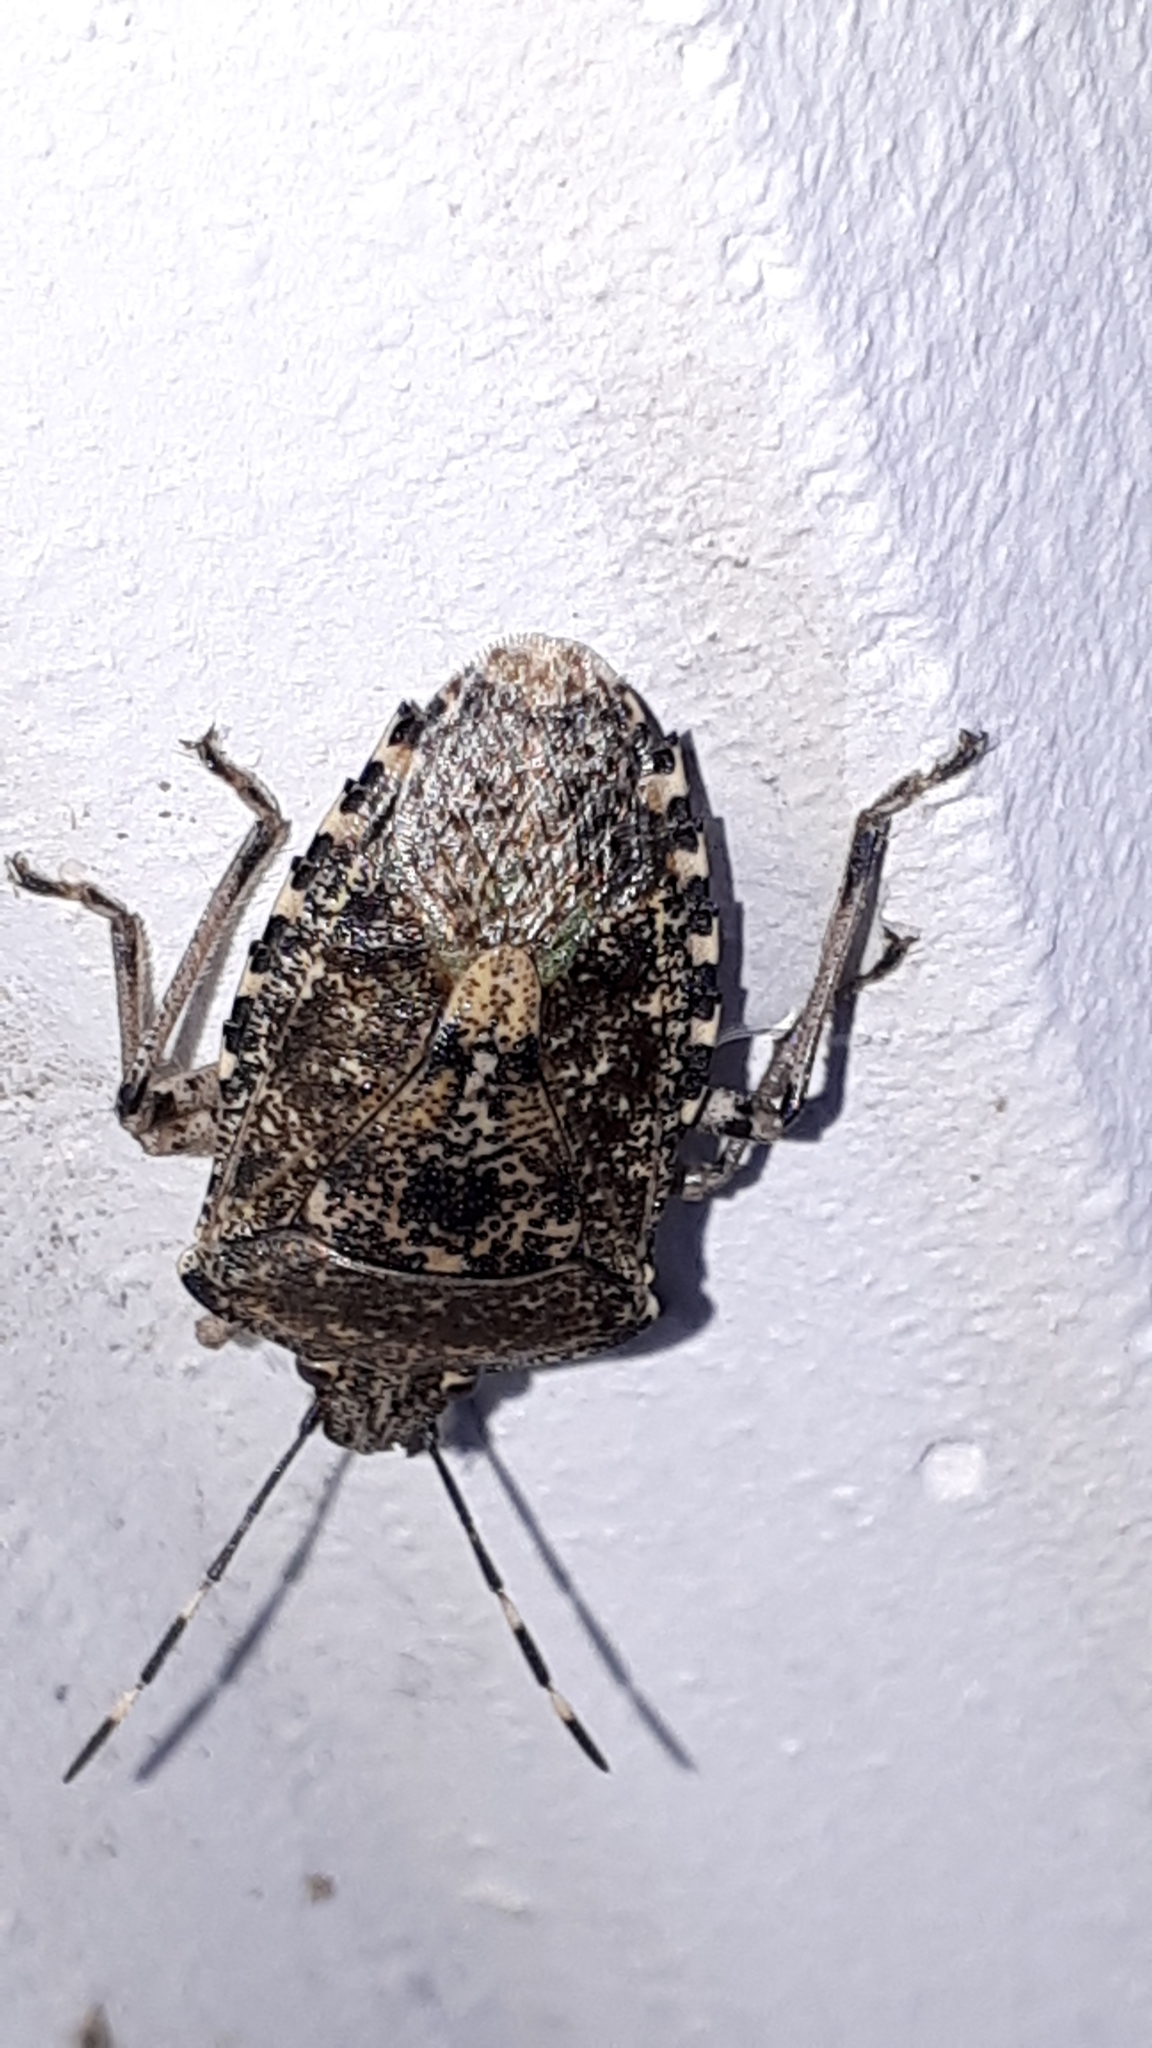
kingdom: Animalia
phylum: Arthropoda
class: Insecta
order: Hemiptera
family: Pentatomidae
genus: Rhaphigaster
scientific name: Rhaphigaster nebulosa
